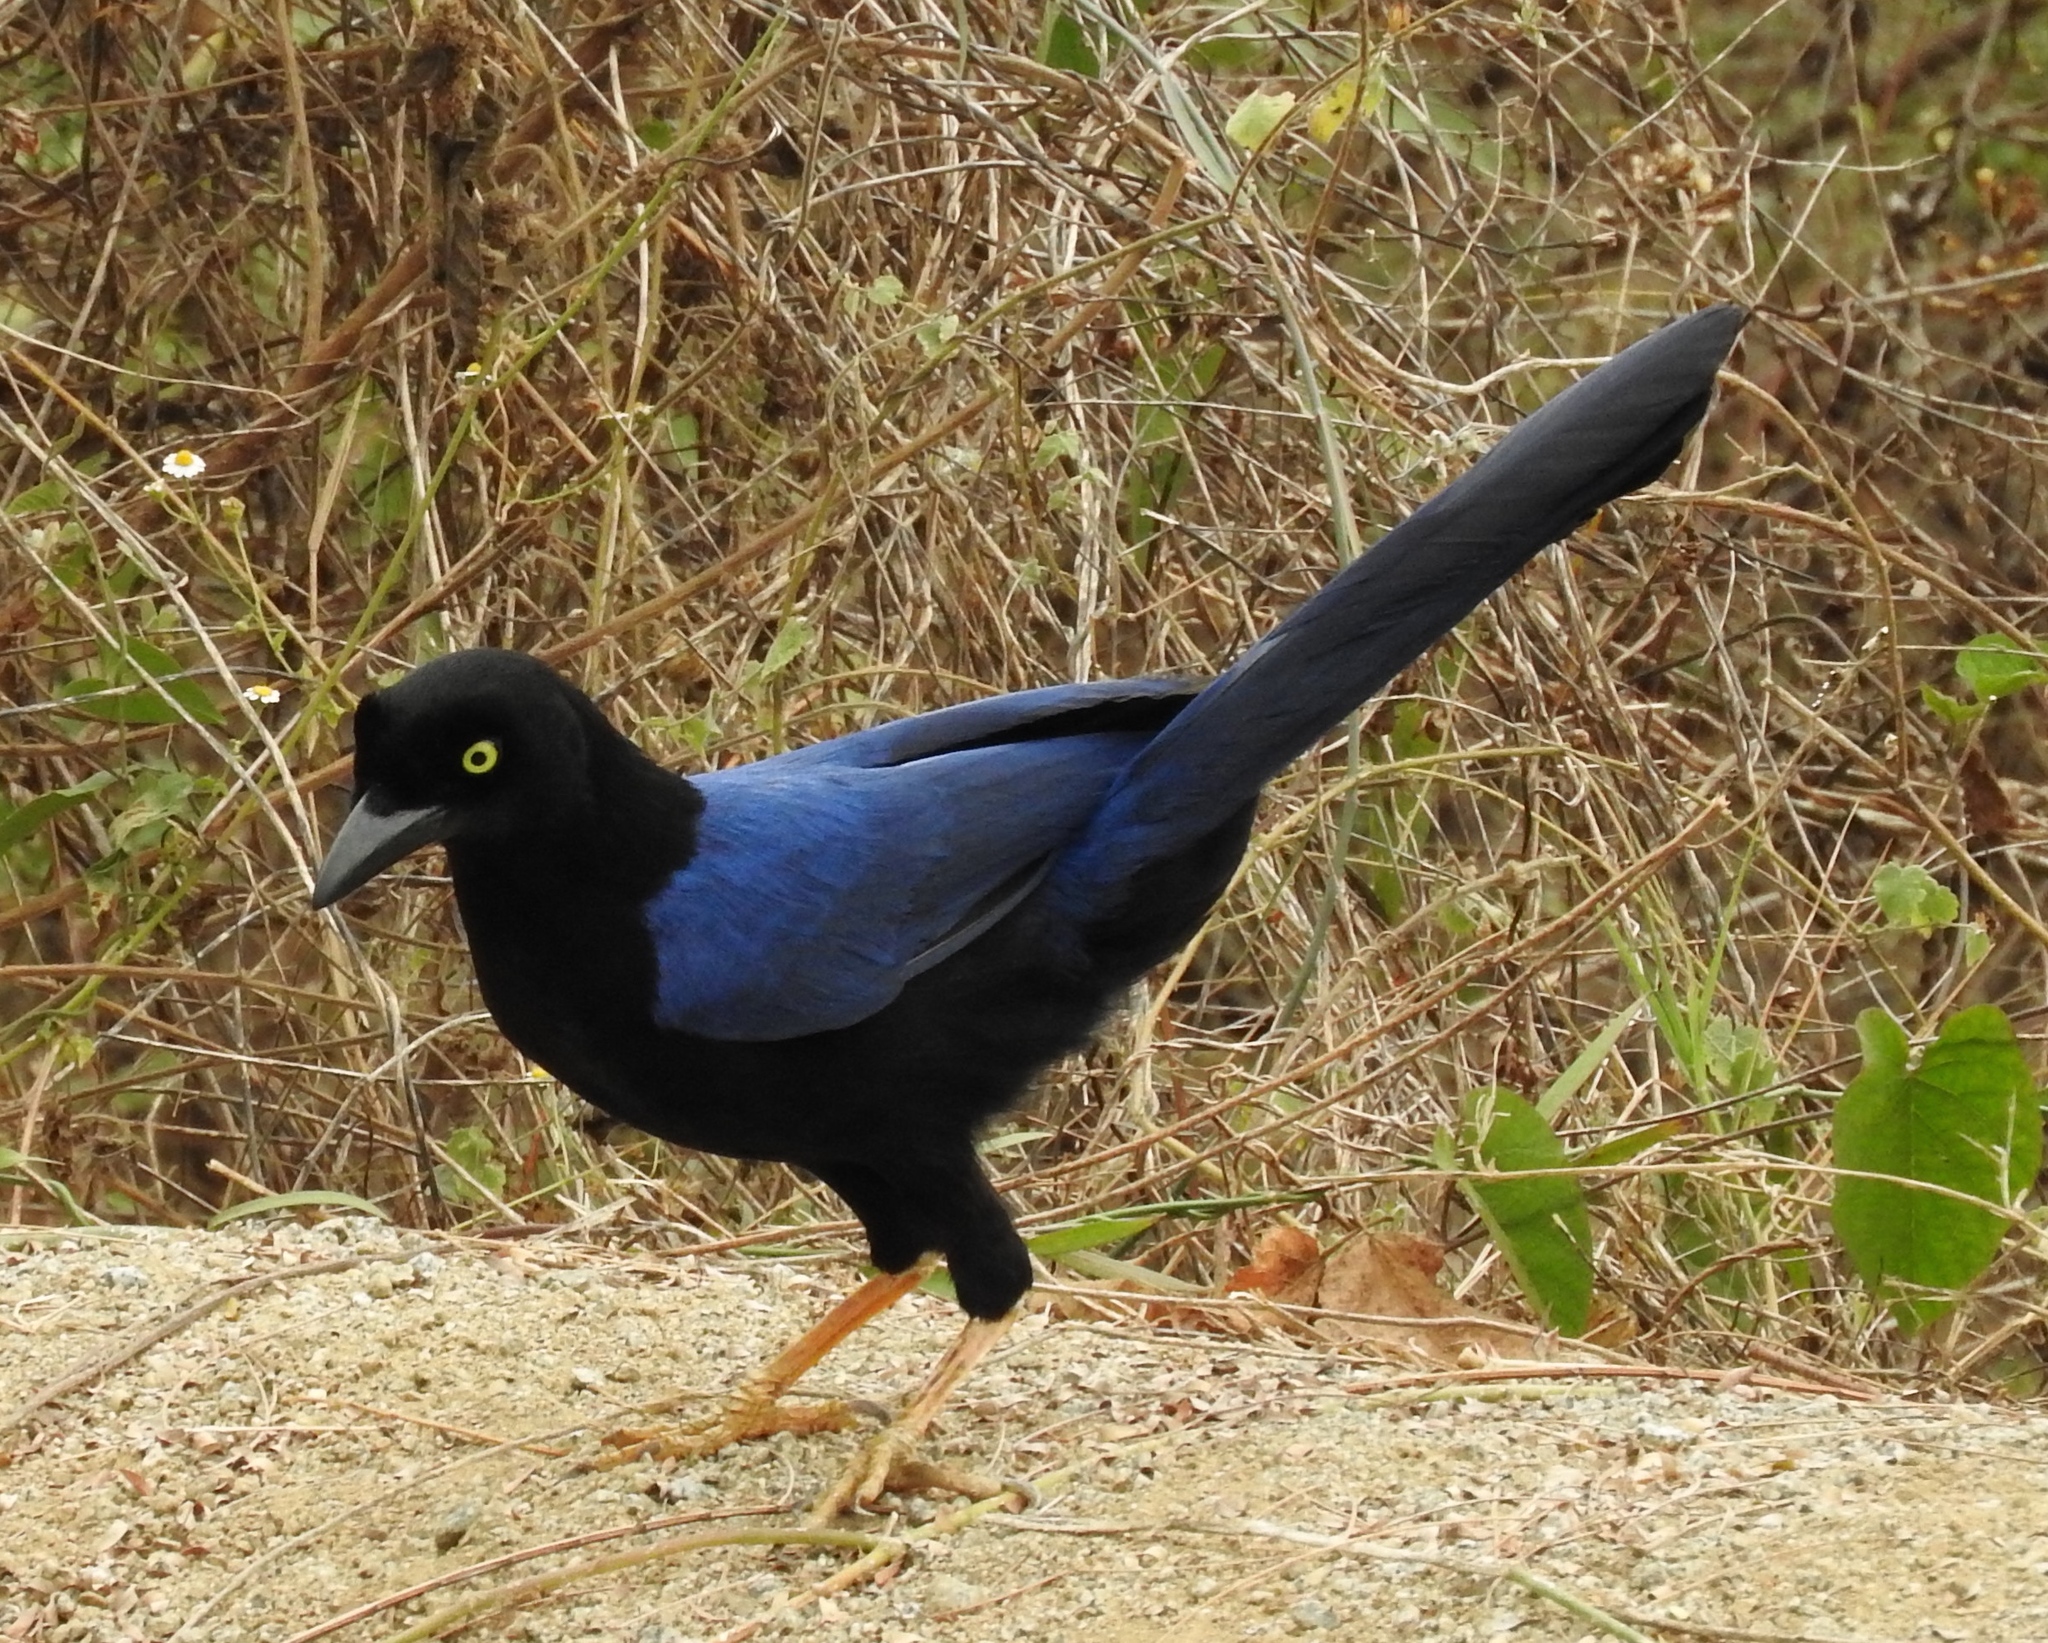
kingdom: Animalia
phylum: Chordata
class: Aves
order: Passeriformes
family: Corvidae
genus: Cyanocorax
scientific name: Cyanocorax beecheii
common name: Purplish-backed jay
